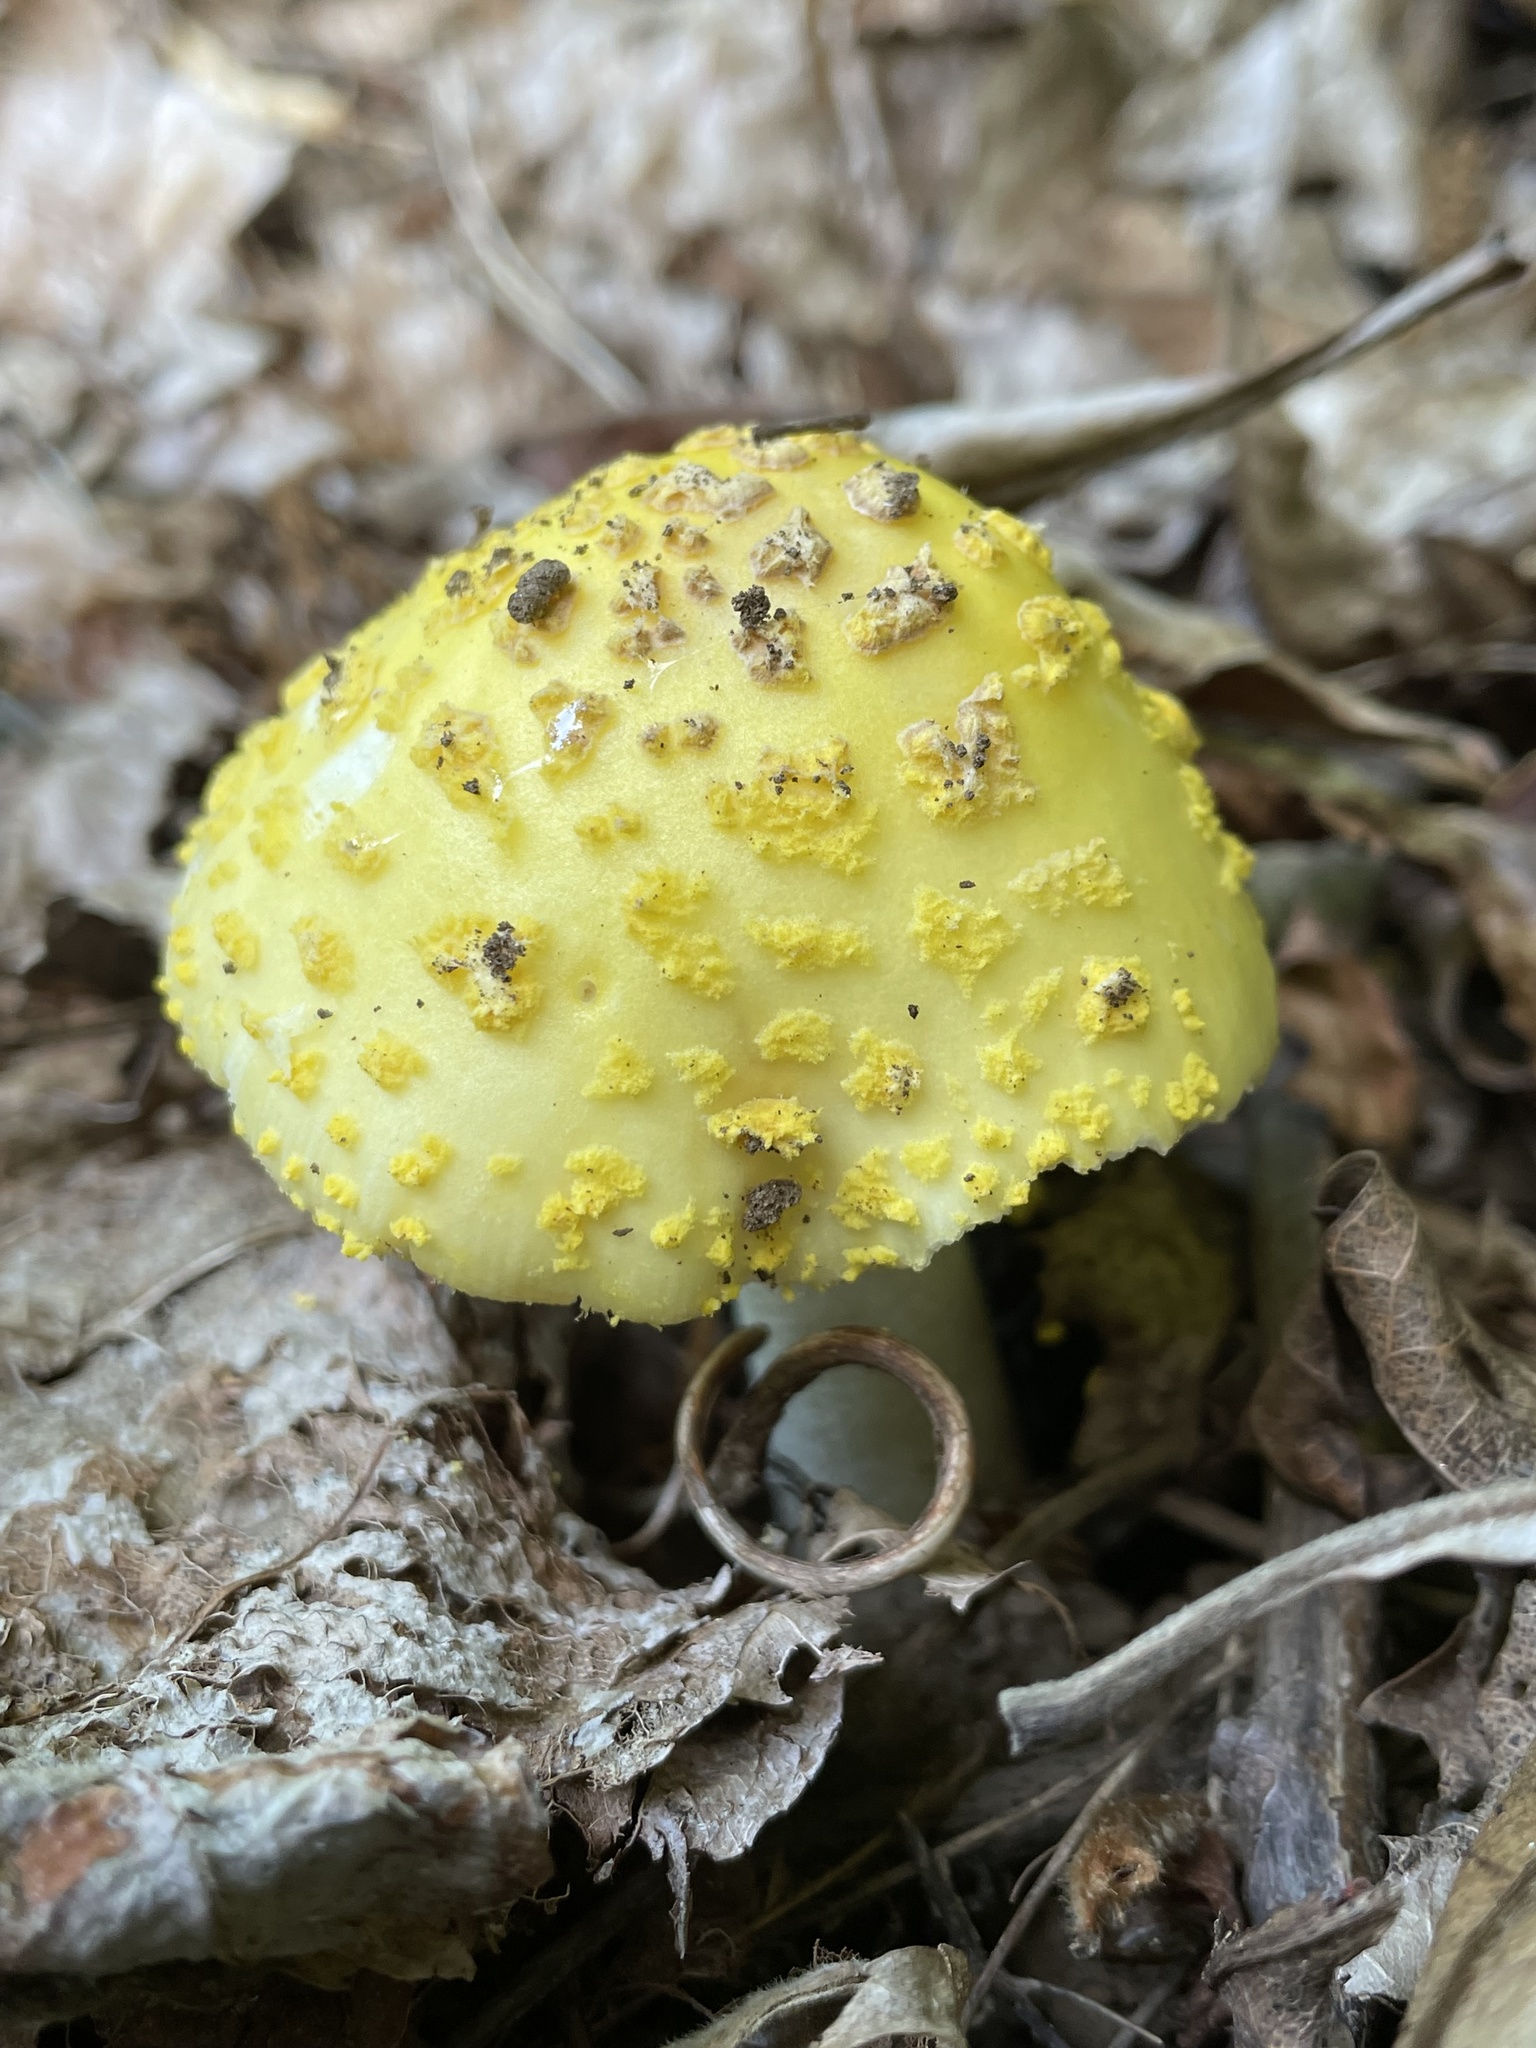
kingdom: Fungi
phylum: Basidiomycota
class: Agaricomycetes
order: Agaricales
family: Amanitaceae
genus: Amanita
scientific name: Amanita flavorubens
